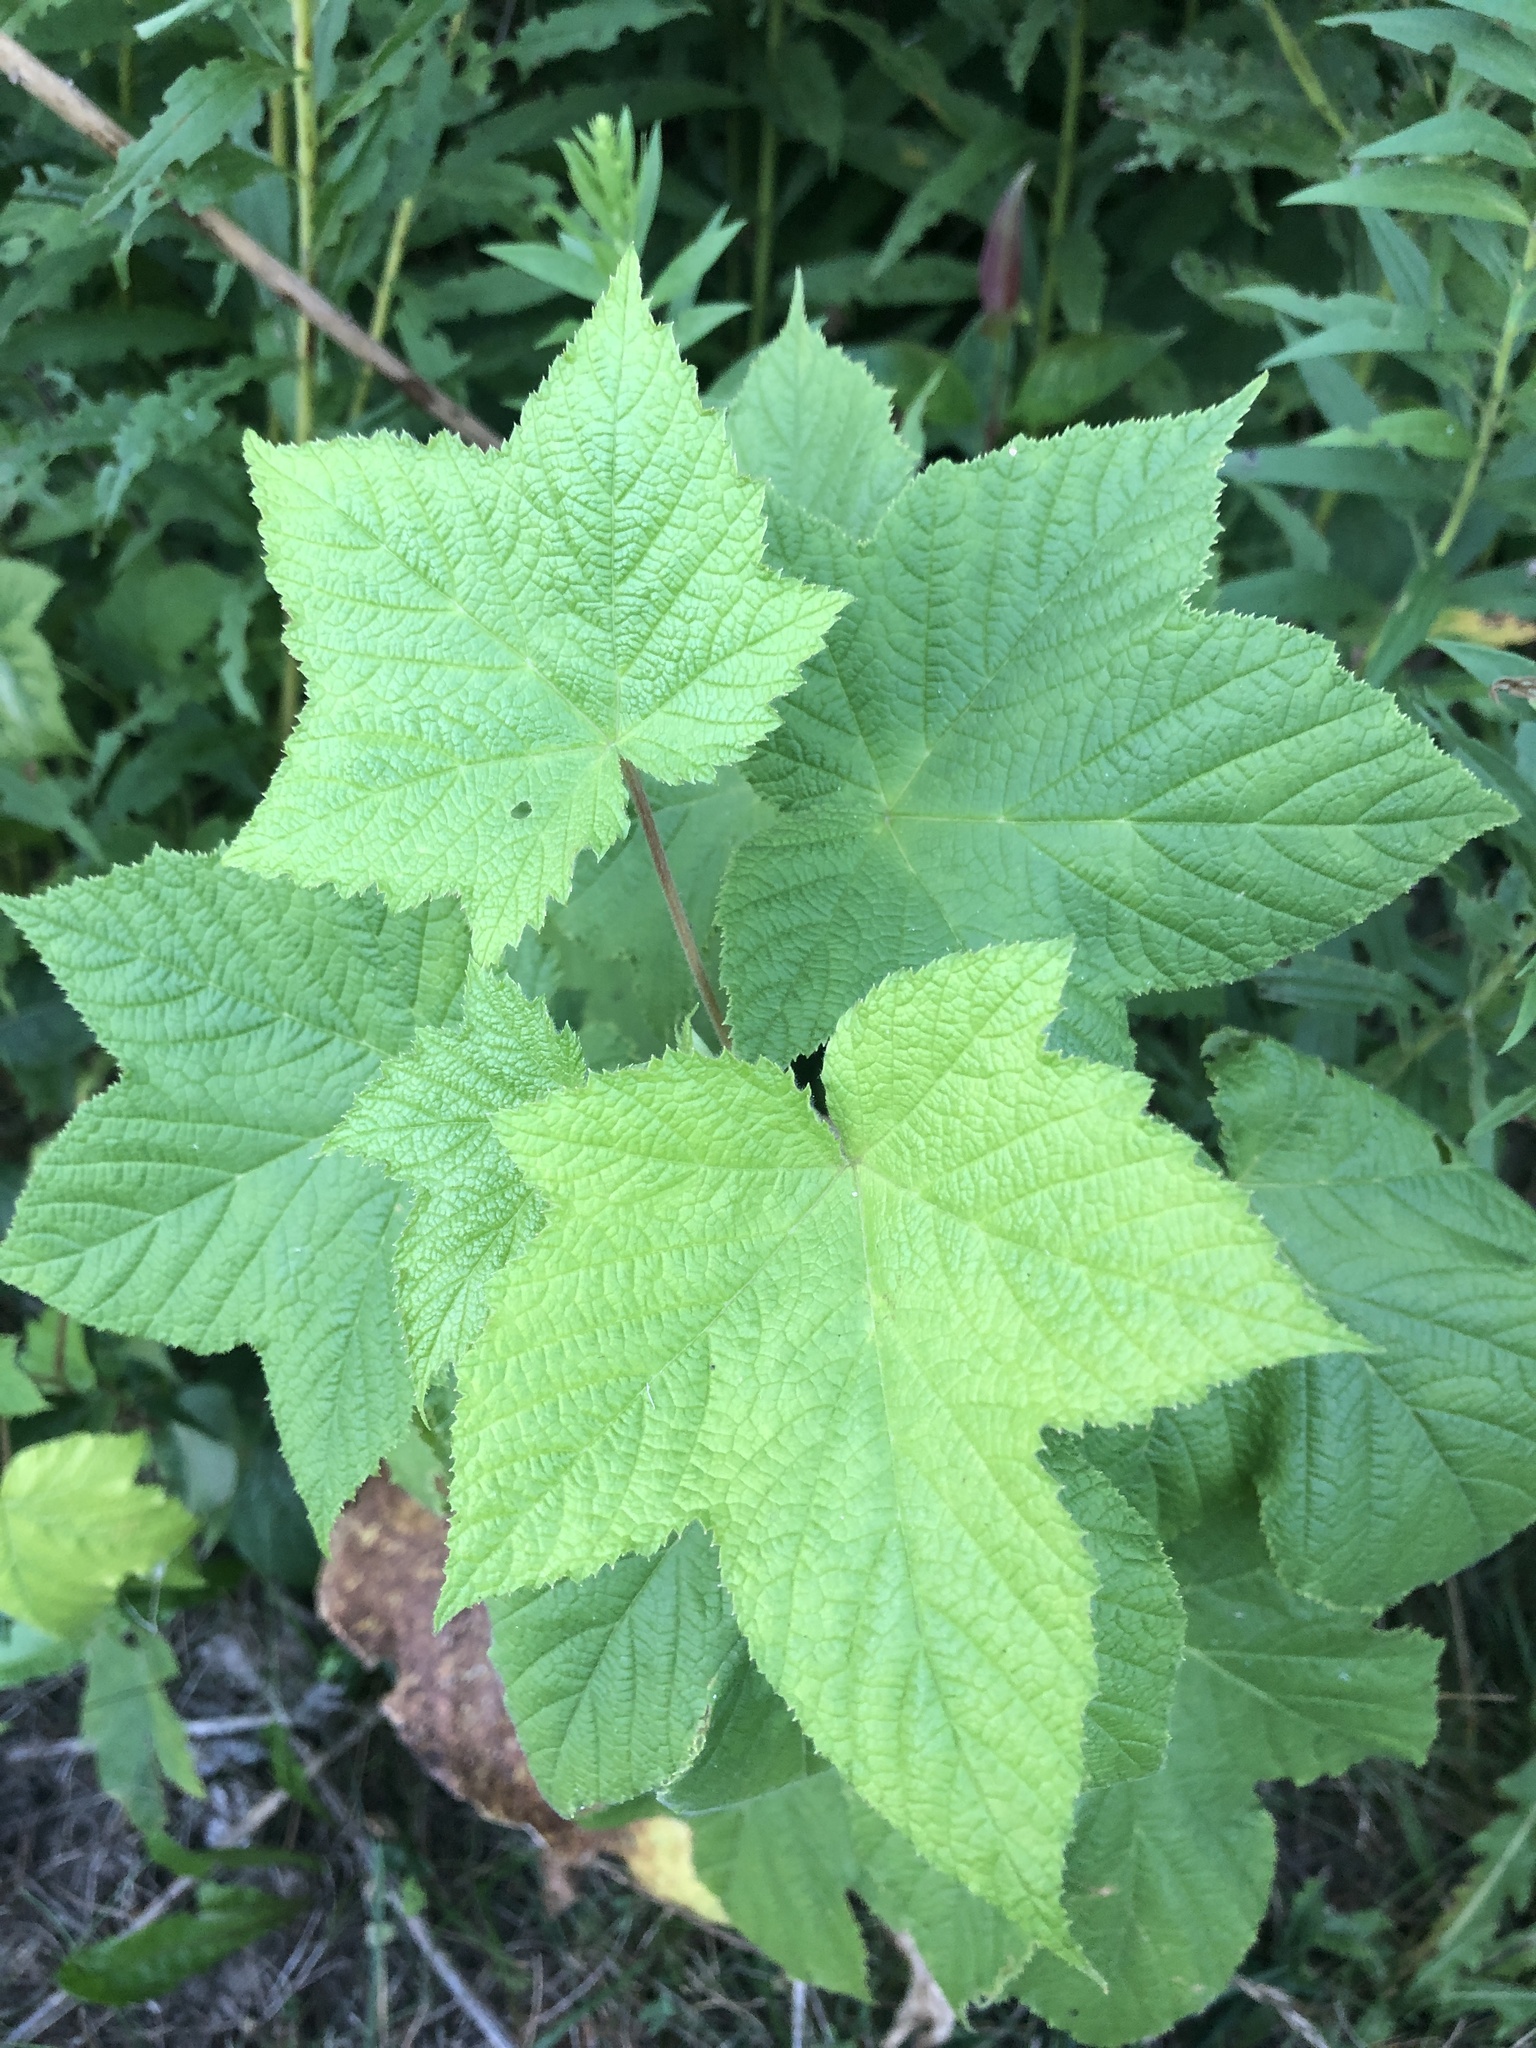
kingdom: Plantae
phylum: Tracheophyta
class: Magnoliopsida
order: Rosales
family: Rosaceae
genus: Rubus
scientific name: Rubus odoratus
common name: Purple-flowered raspberry
